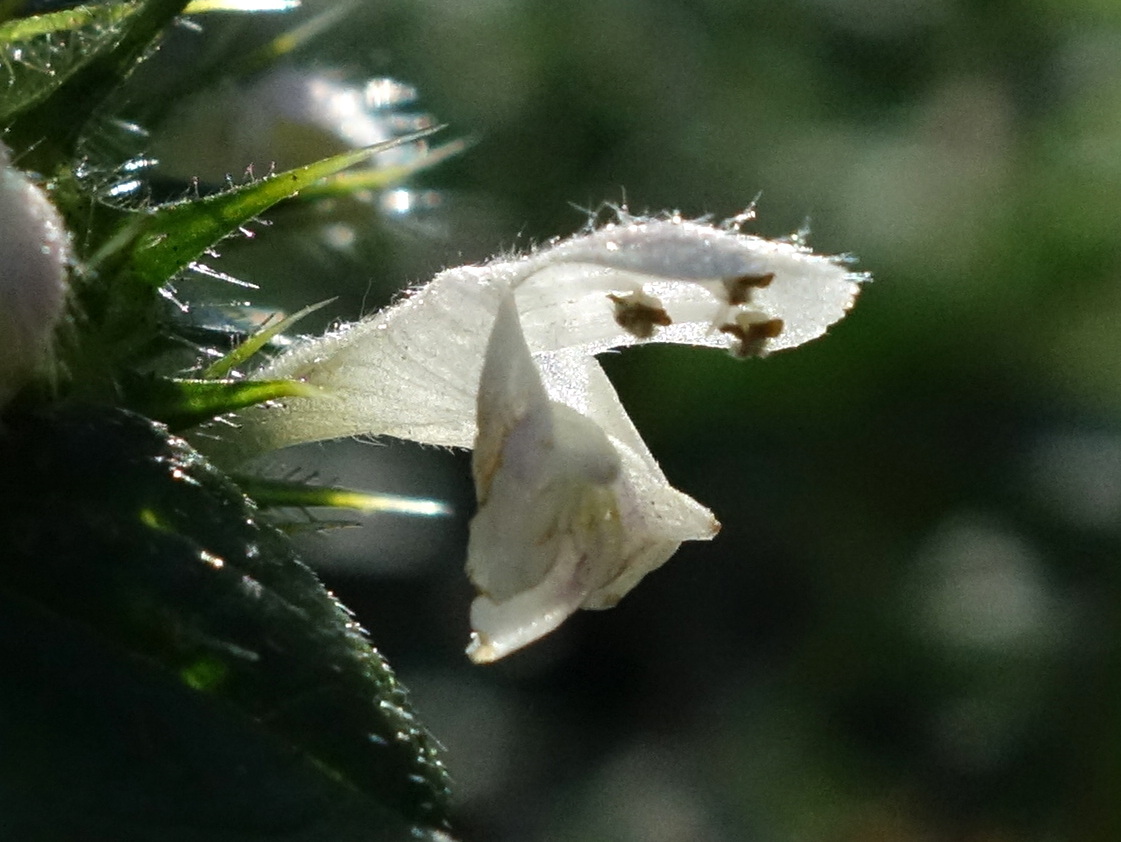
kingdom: Plantae
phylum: Tracheophyta
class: Magnoliopsida
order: Lamiales
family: Lamiaceae
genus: Galeopsis
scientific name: Galeopsis tetrahit
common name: Common hemp-nettle
